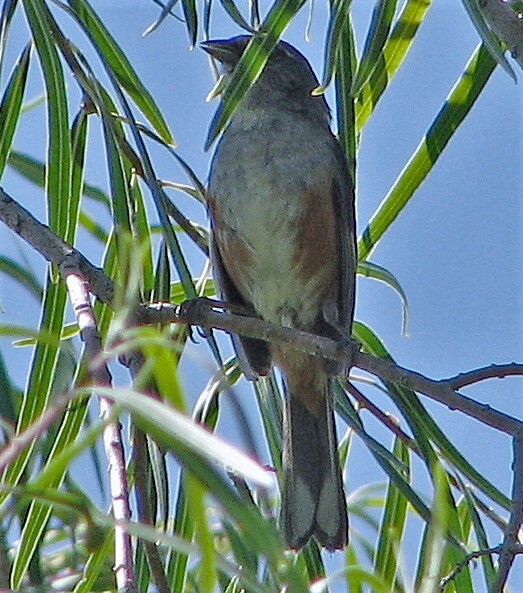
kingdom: Animalia
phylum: Chordata
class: Aves
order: Passeriformes
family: Thraupidae
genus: Microspingus
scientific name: Microspingus cabanisi
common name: Gray-throated warbling-finch
